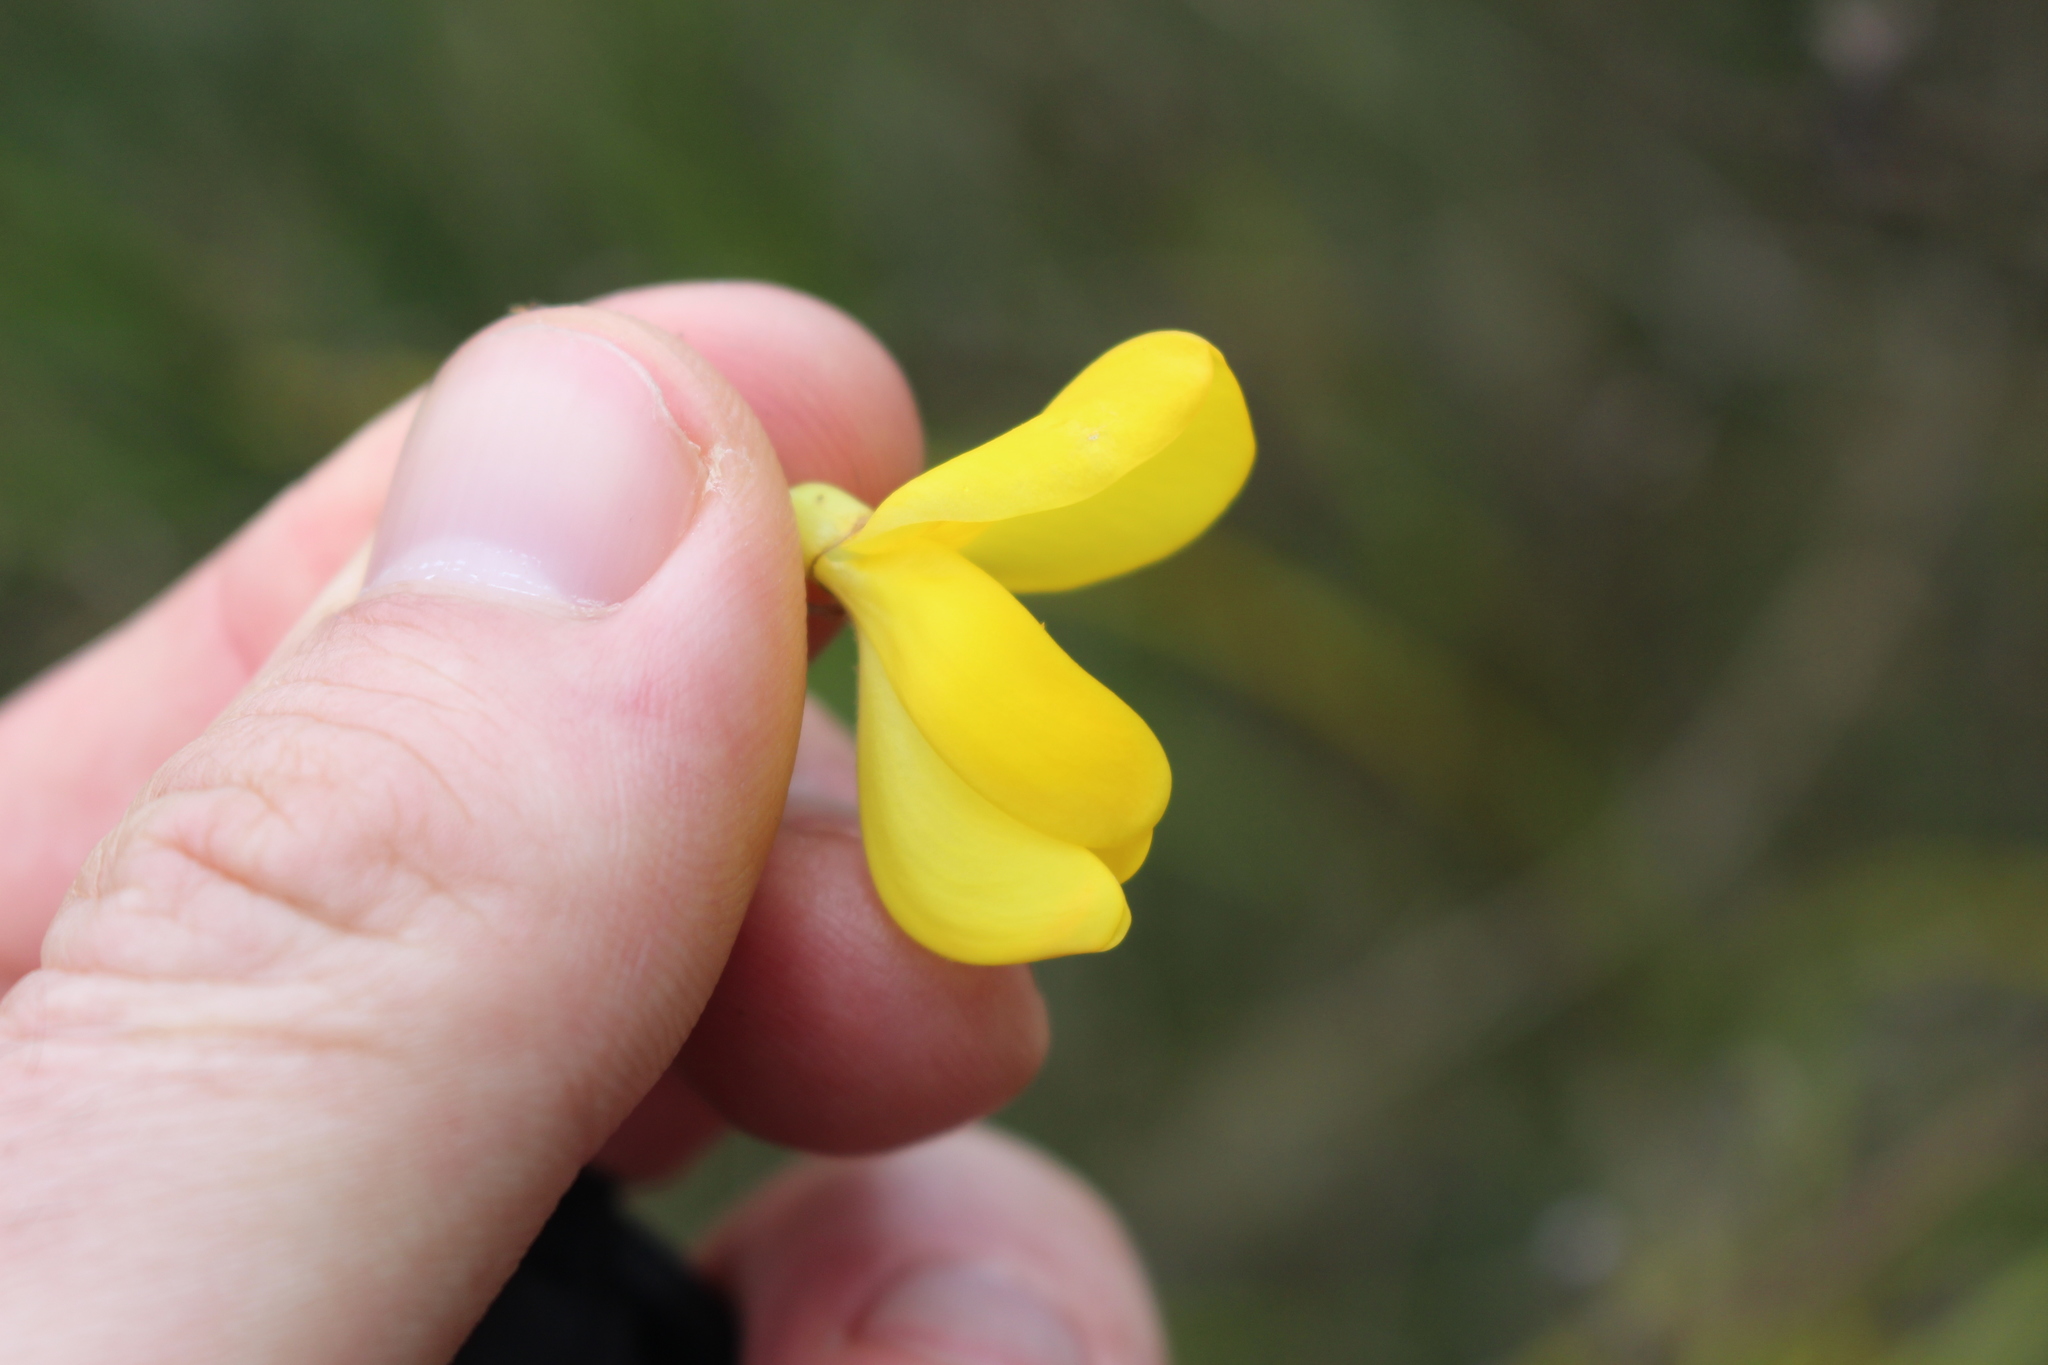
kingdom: Plantae
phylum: Tracheophyta
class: Magnoliopsida
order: Fabales
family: Fabaceae
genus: Cytisus
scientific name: Cytisus scoparius
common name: Scotch broom
